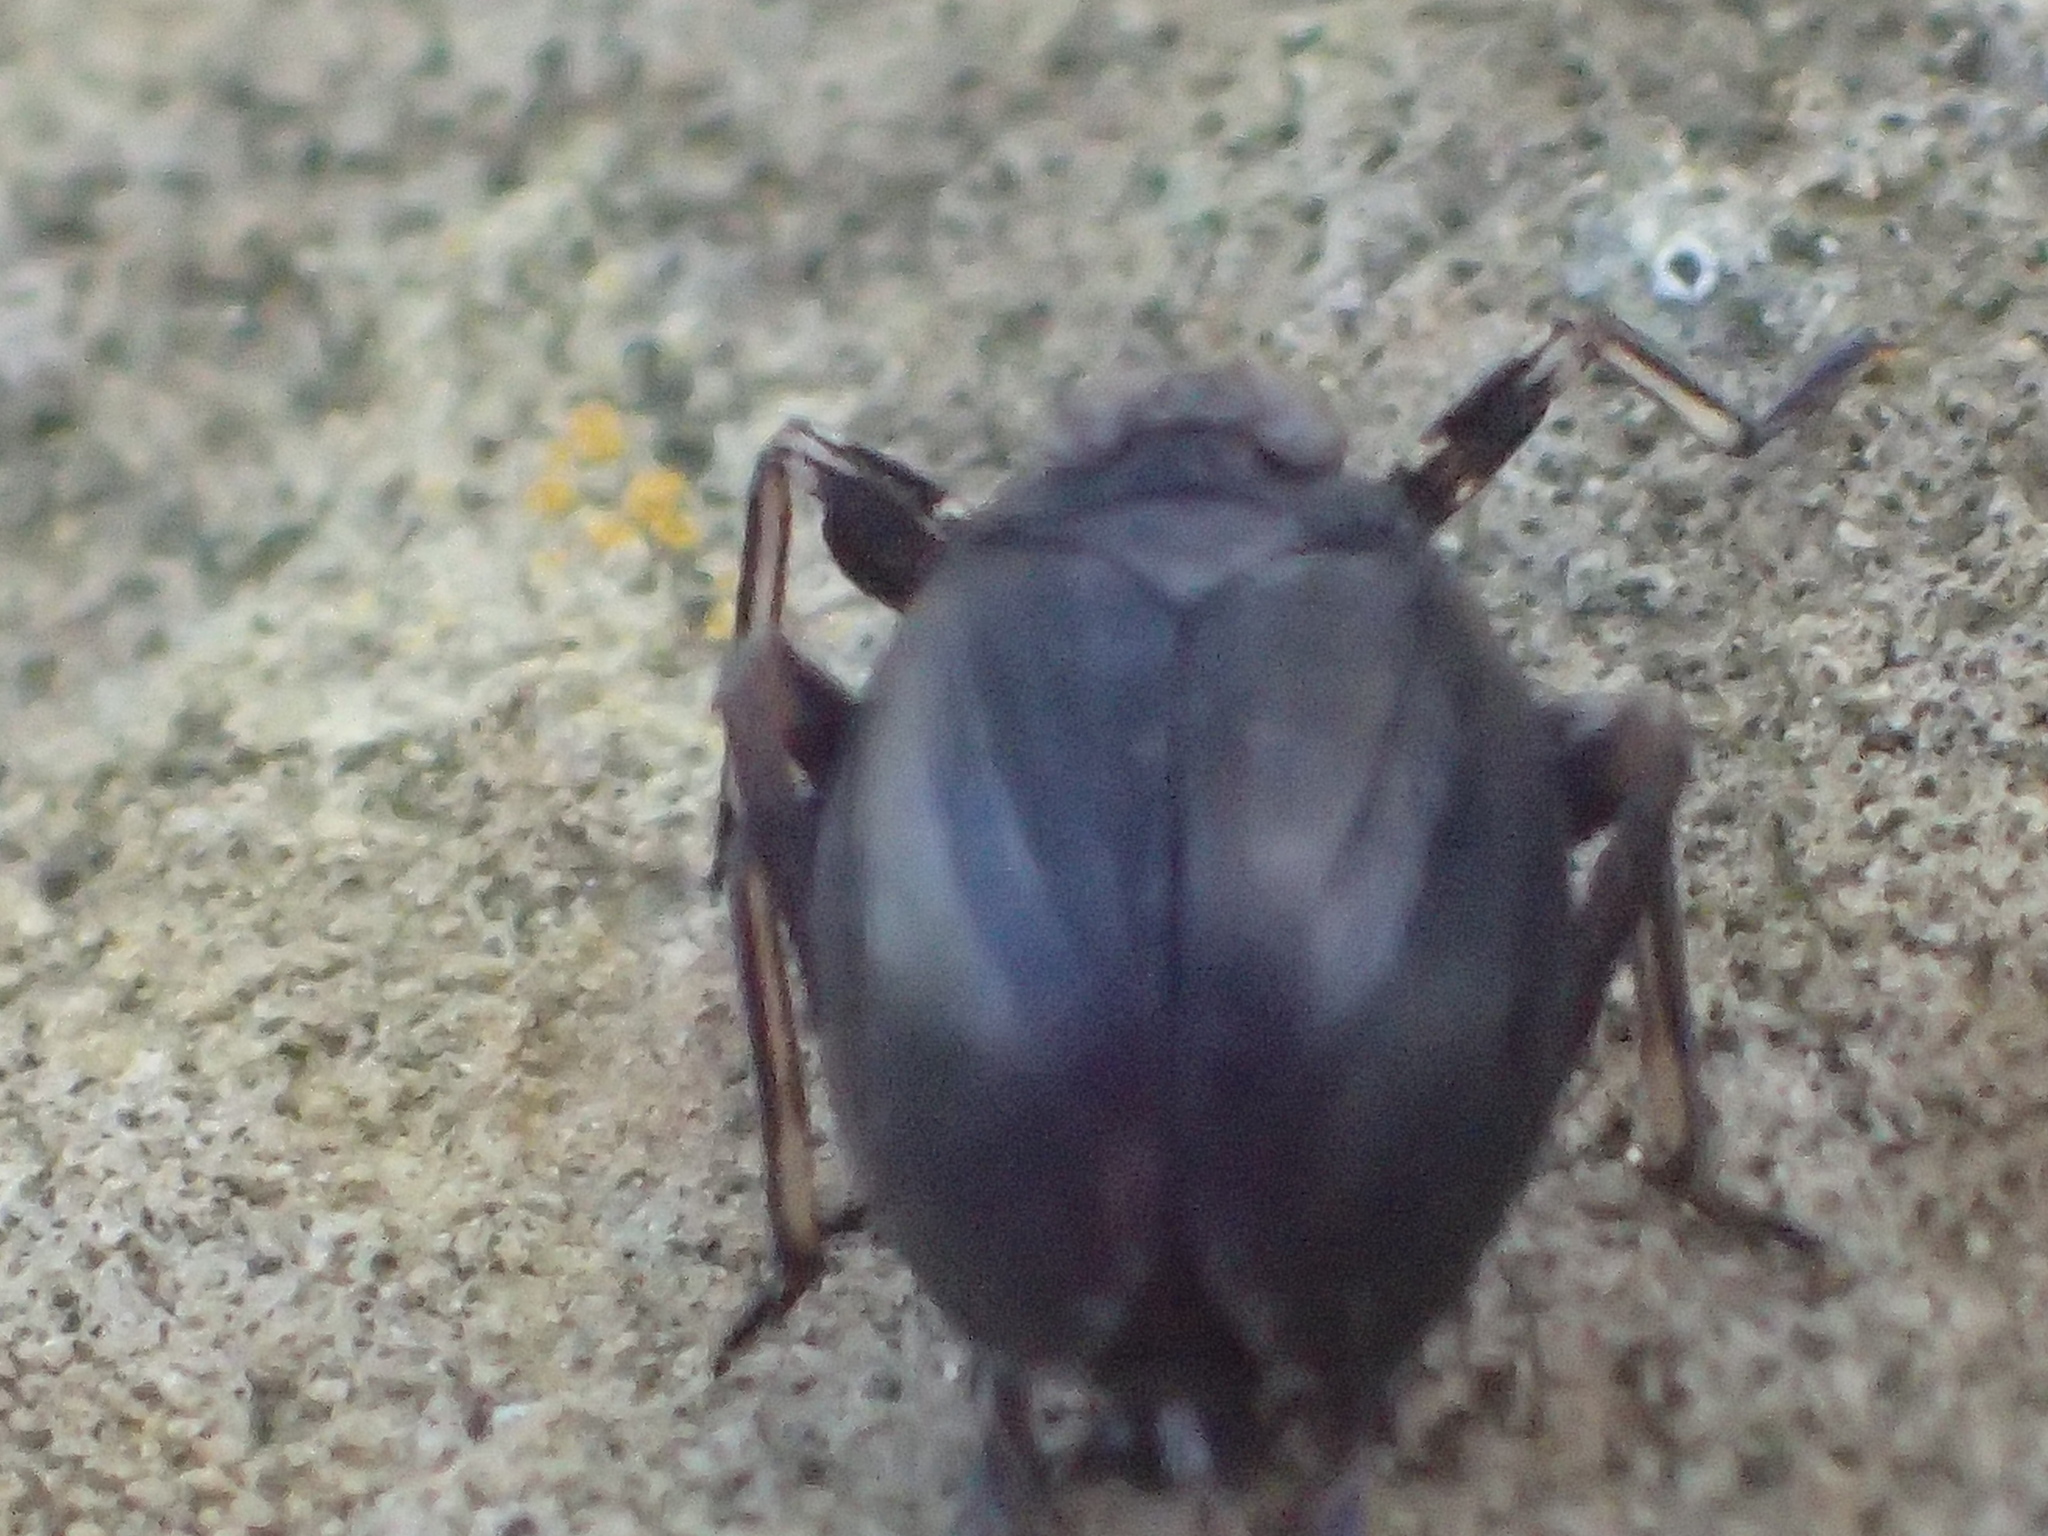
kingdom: Animalia
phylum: Arthropoda
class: Insecta
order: Hemiptera
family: Achilidae
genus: Isodaemon
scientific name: Isodaemon orontes
